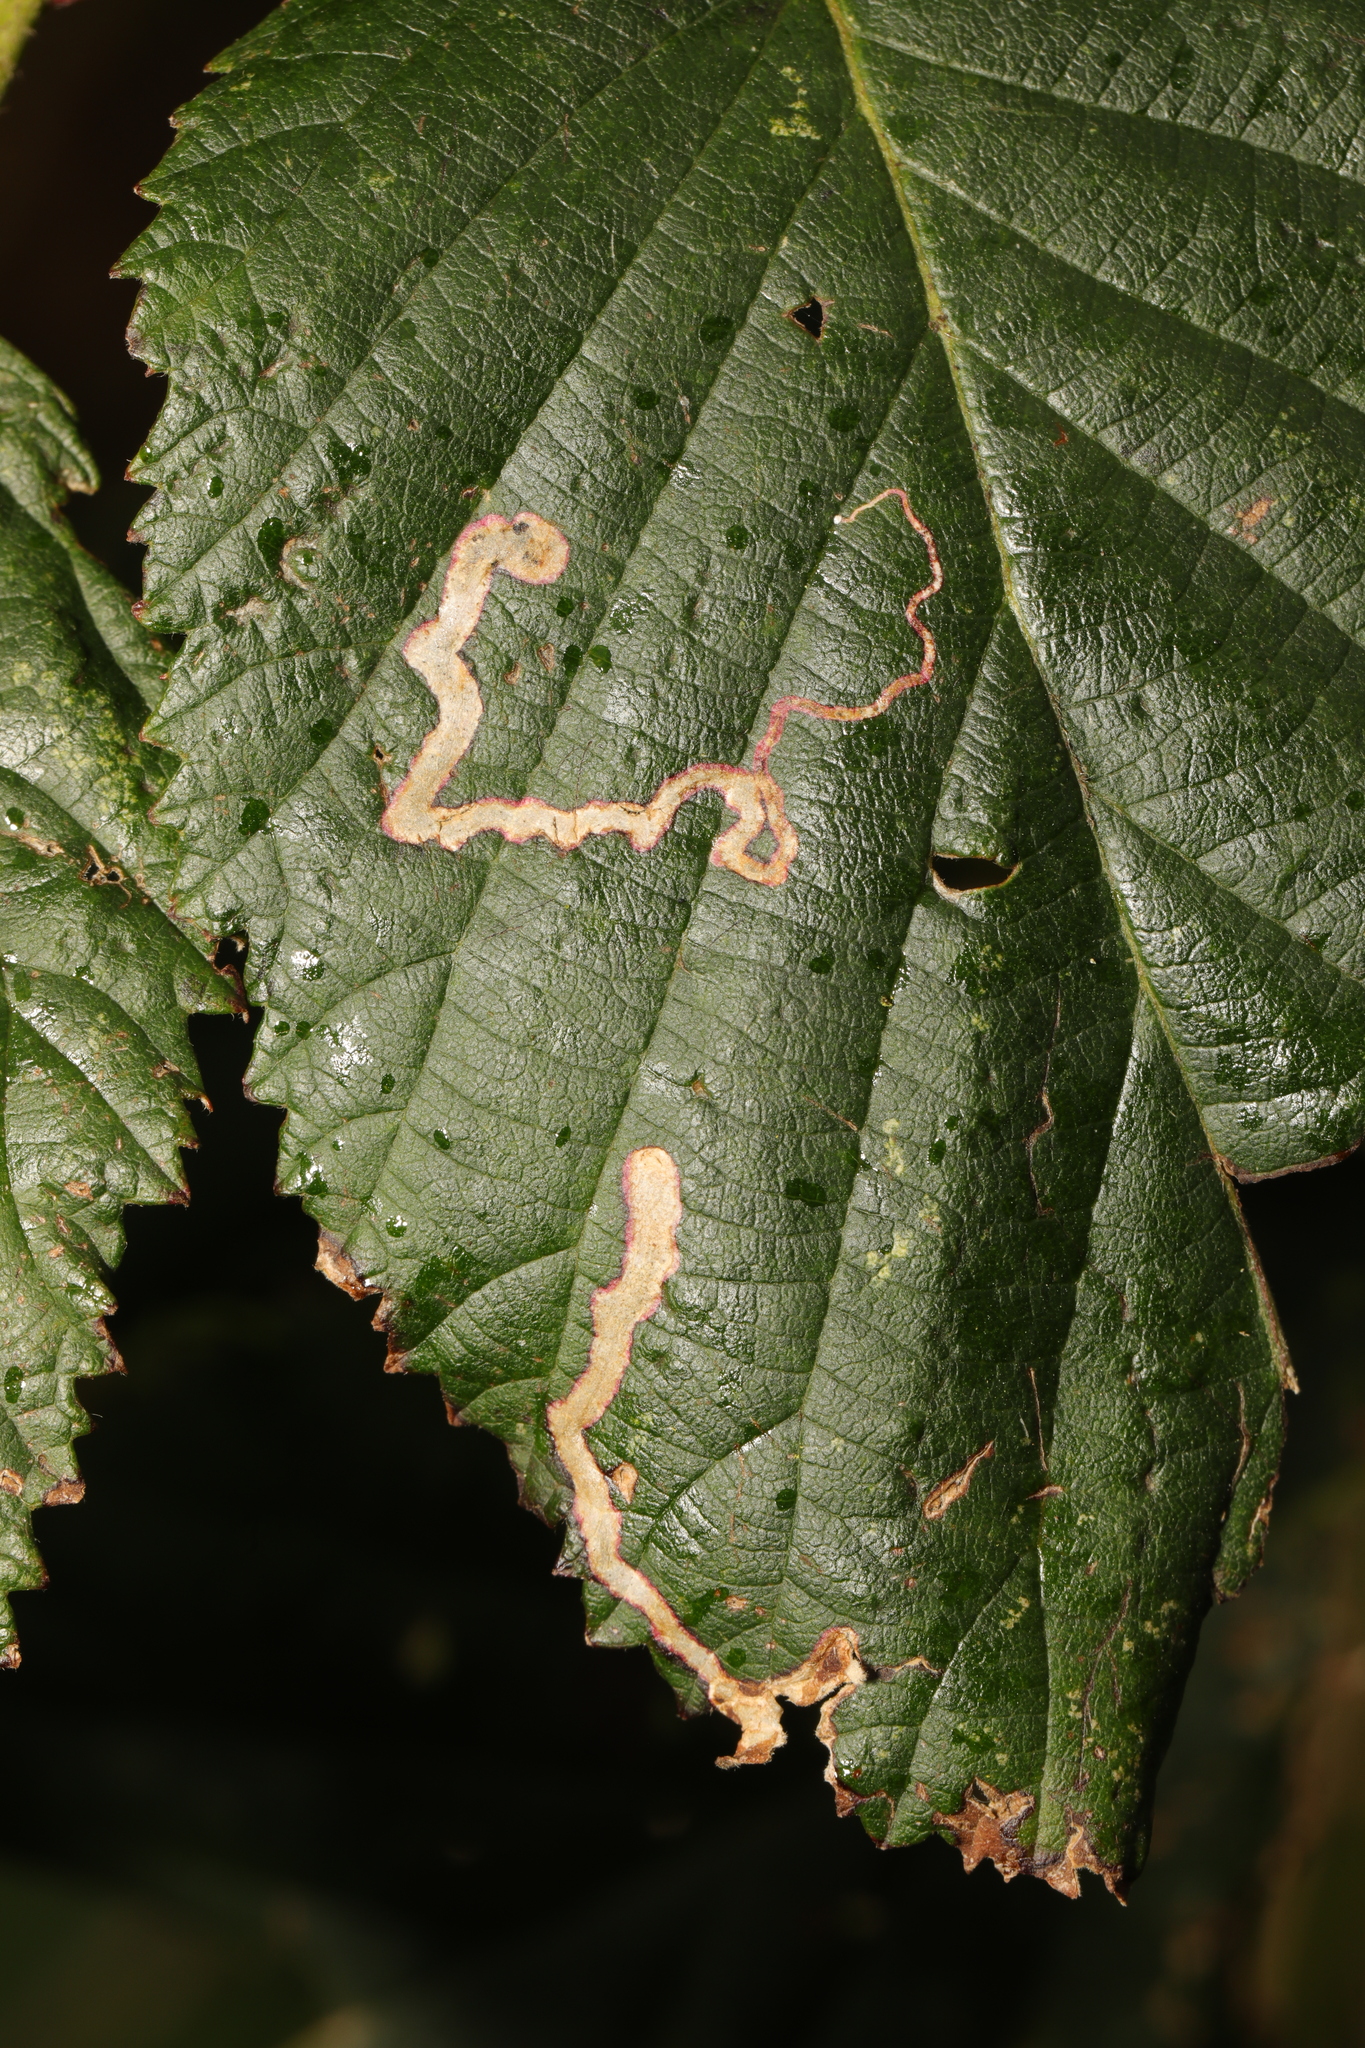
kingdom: Animalia
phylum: Arthropoda
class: Insecta
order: Lepidoptera
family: Nepticulidae
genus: Stigmella
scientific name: Stigmella aurella
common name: Golden pigmy
